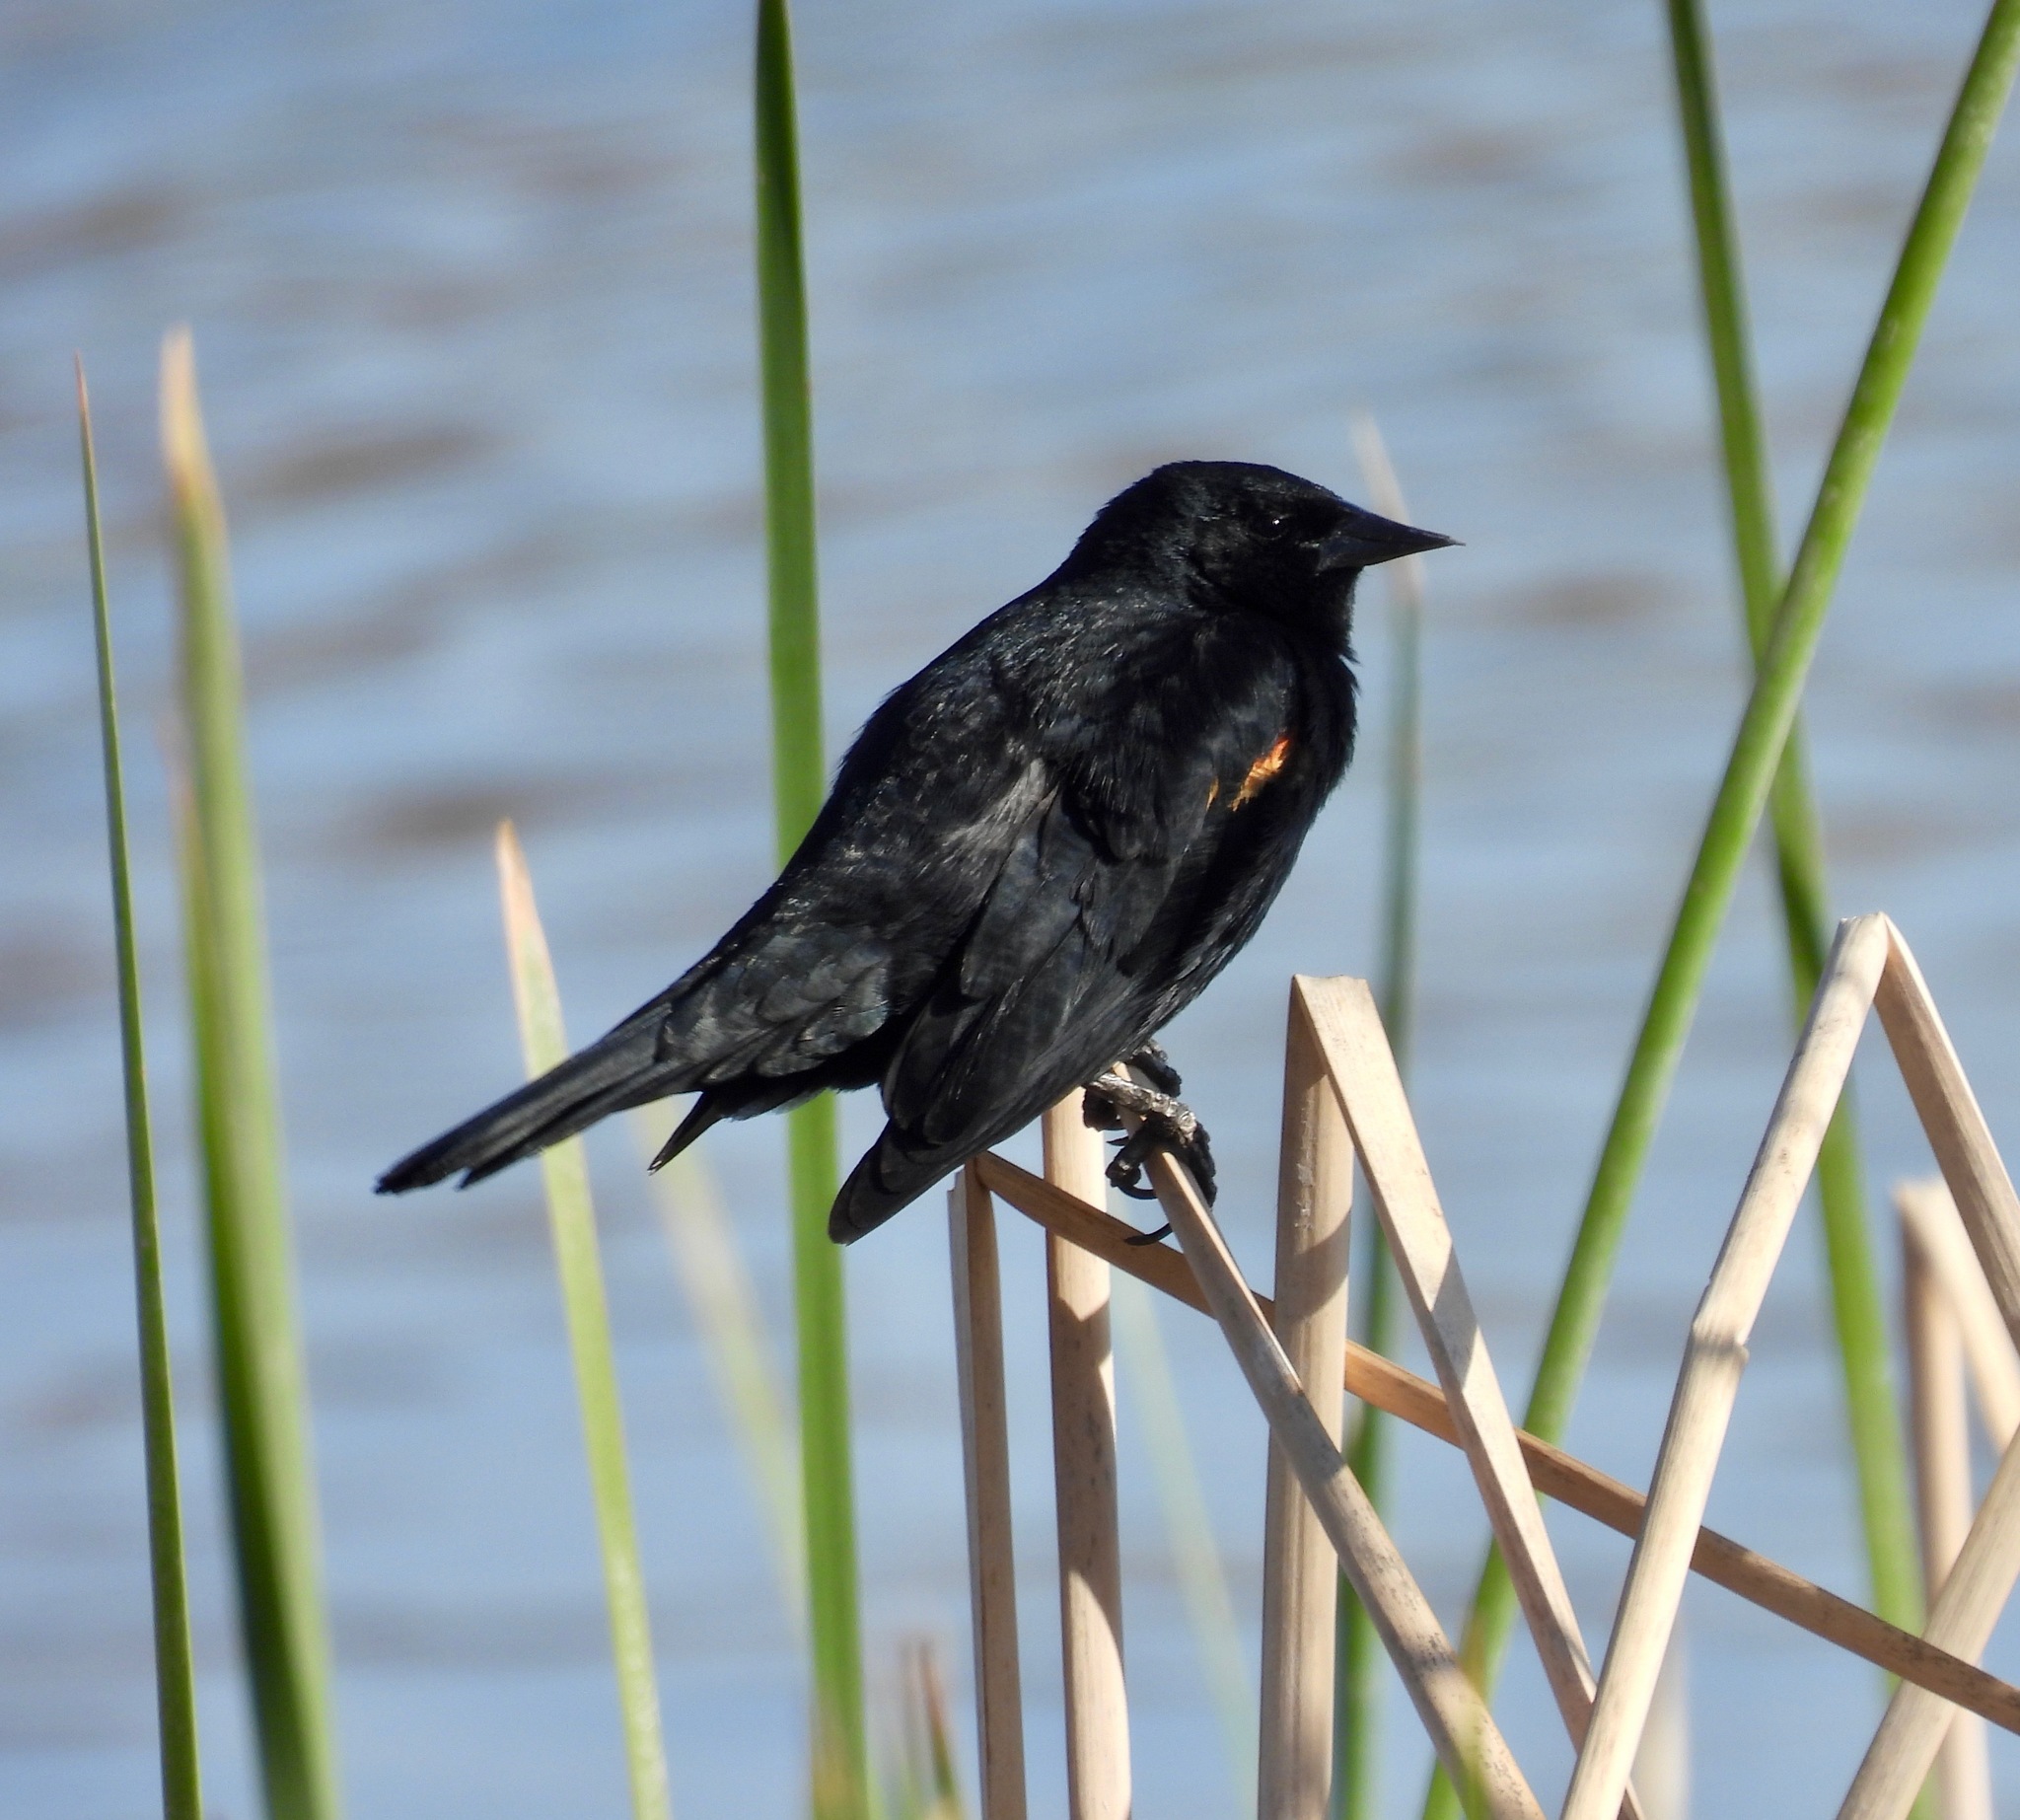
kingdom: Animalia
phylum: Chordata
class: Aves
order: Passeriformes
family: Icteridae
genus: Agelaius
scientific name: Agelaius phoeniceus
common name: Red-winged blackbird
